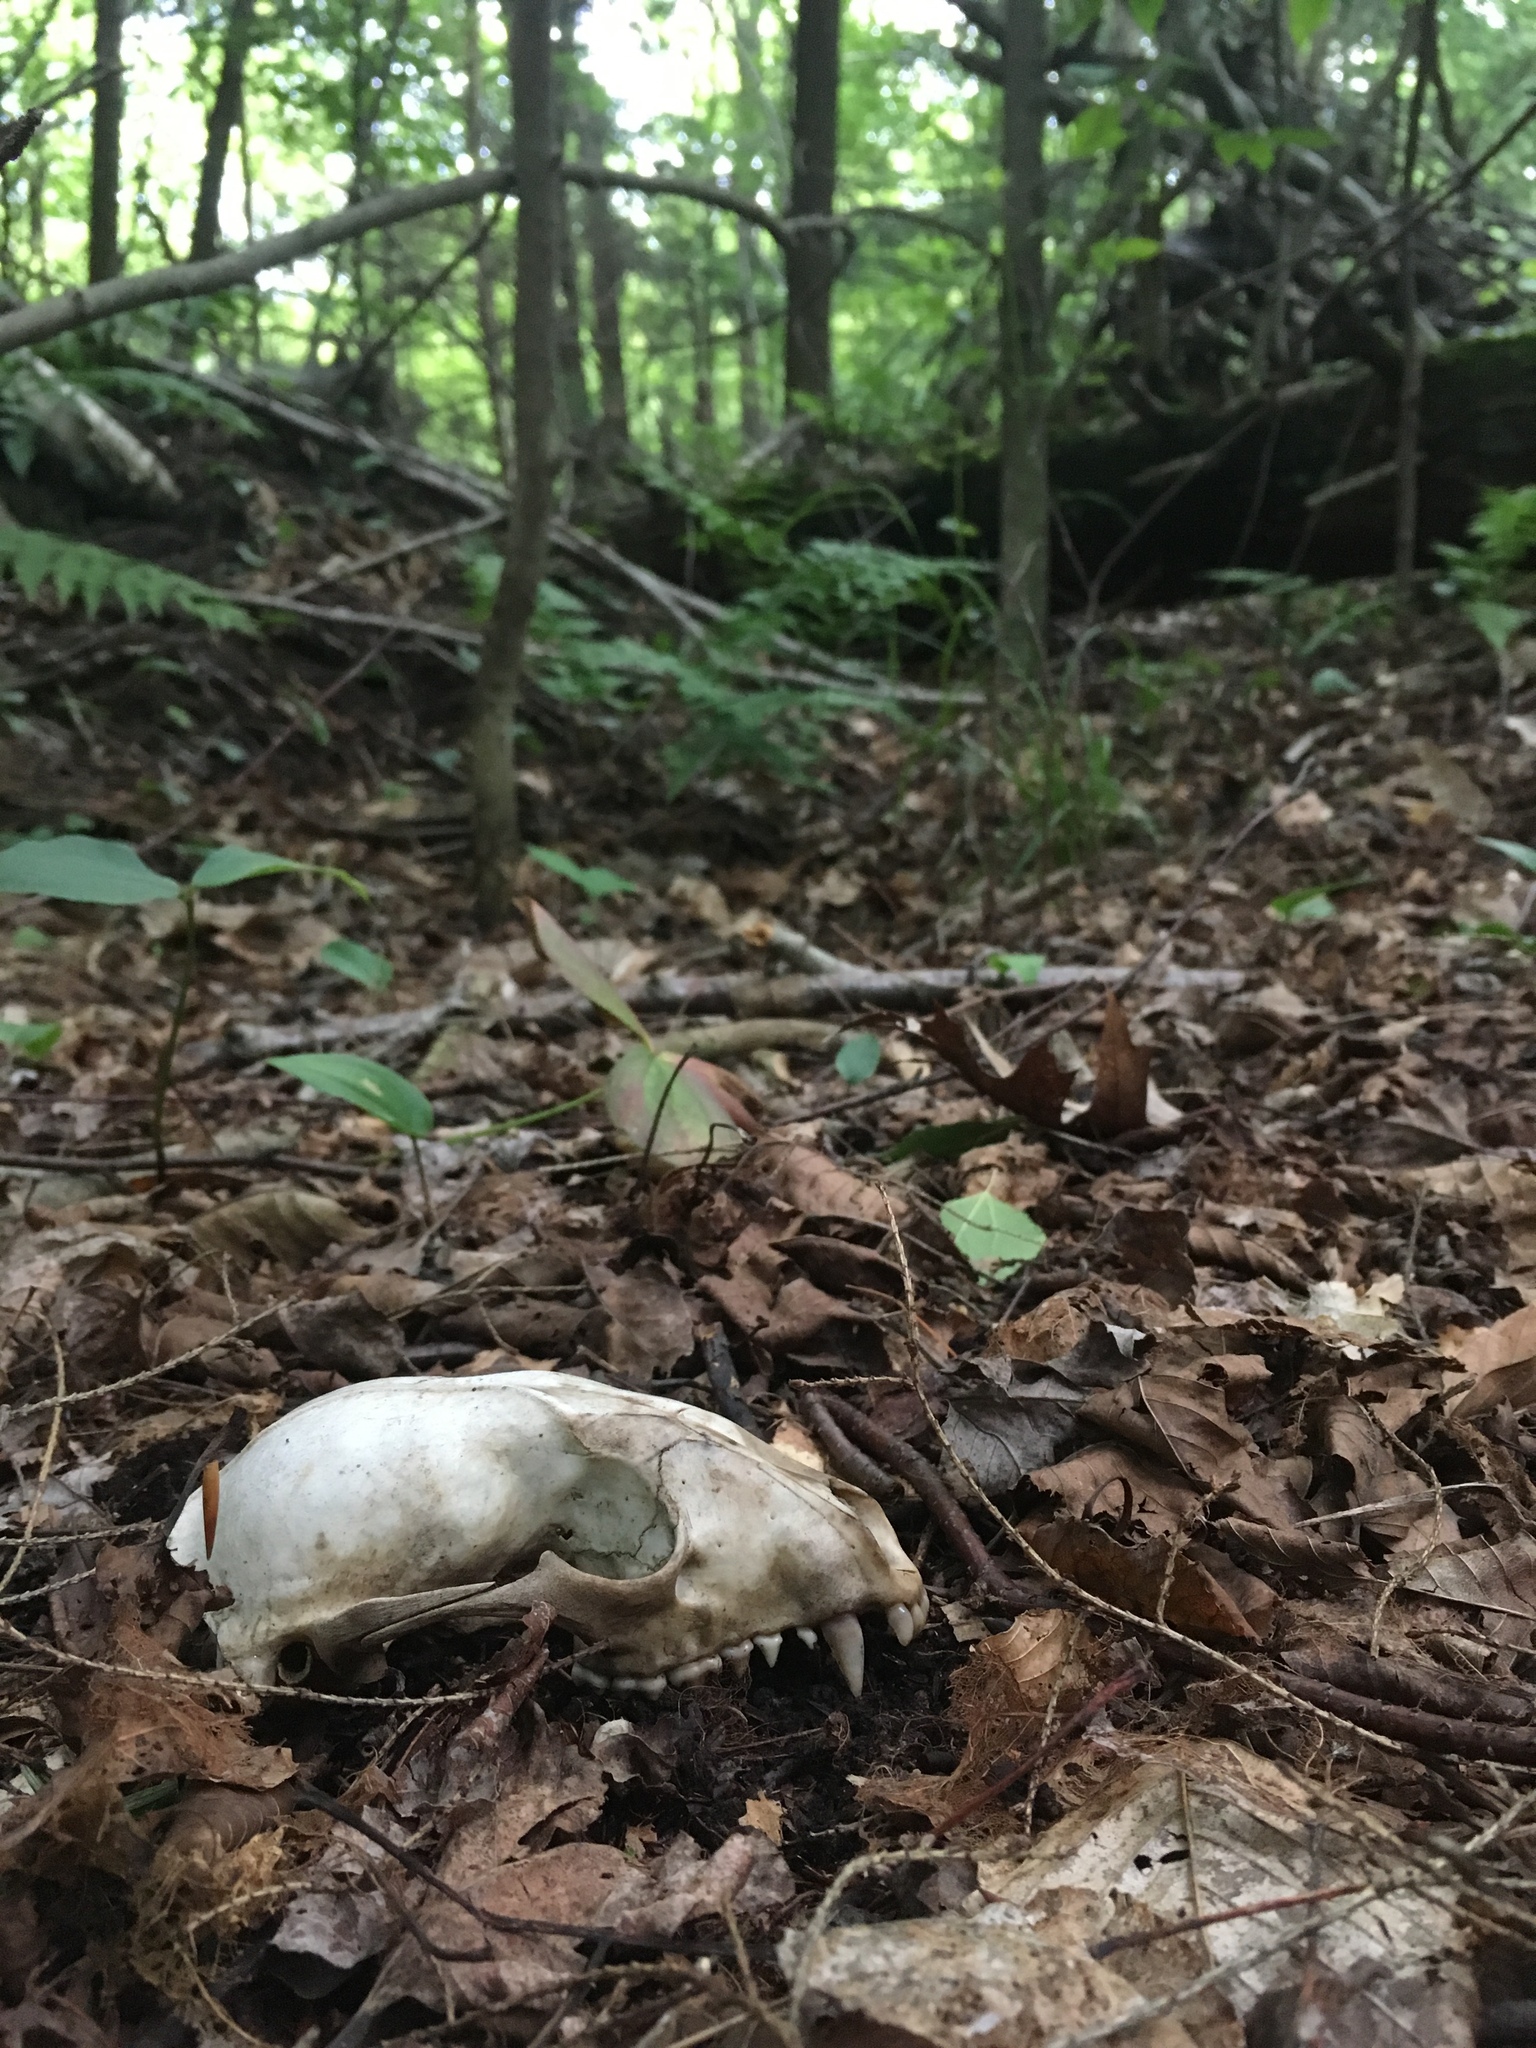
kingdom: Animalia
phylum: Chordata
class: Mammalia
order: Carnivora
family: Procyonidae
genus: Procyon
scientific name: Procyon lotor
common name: Raccoon
